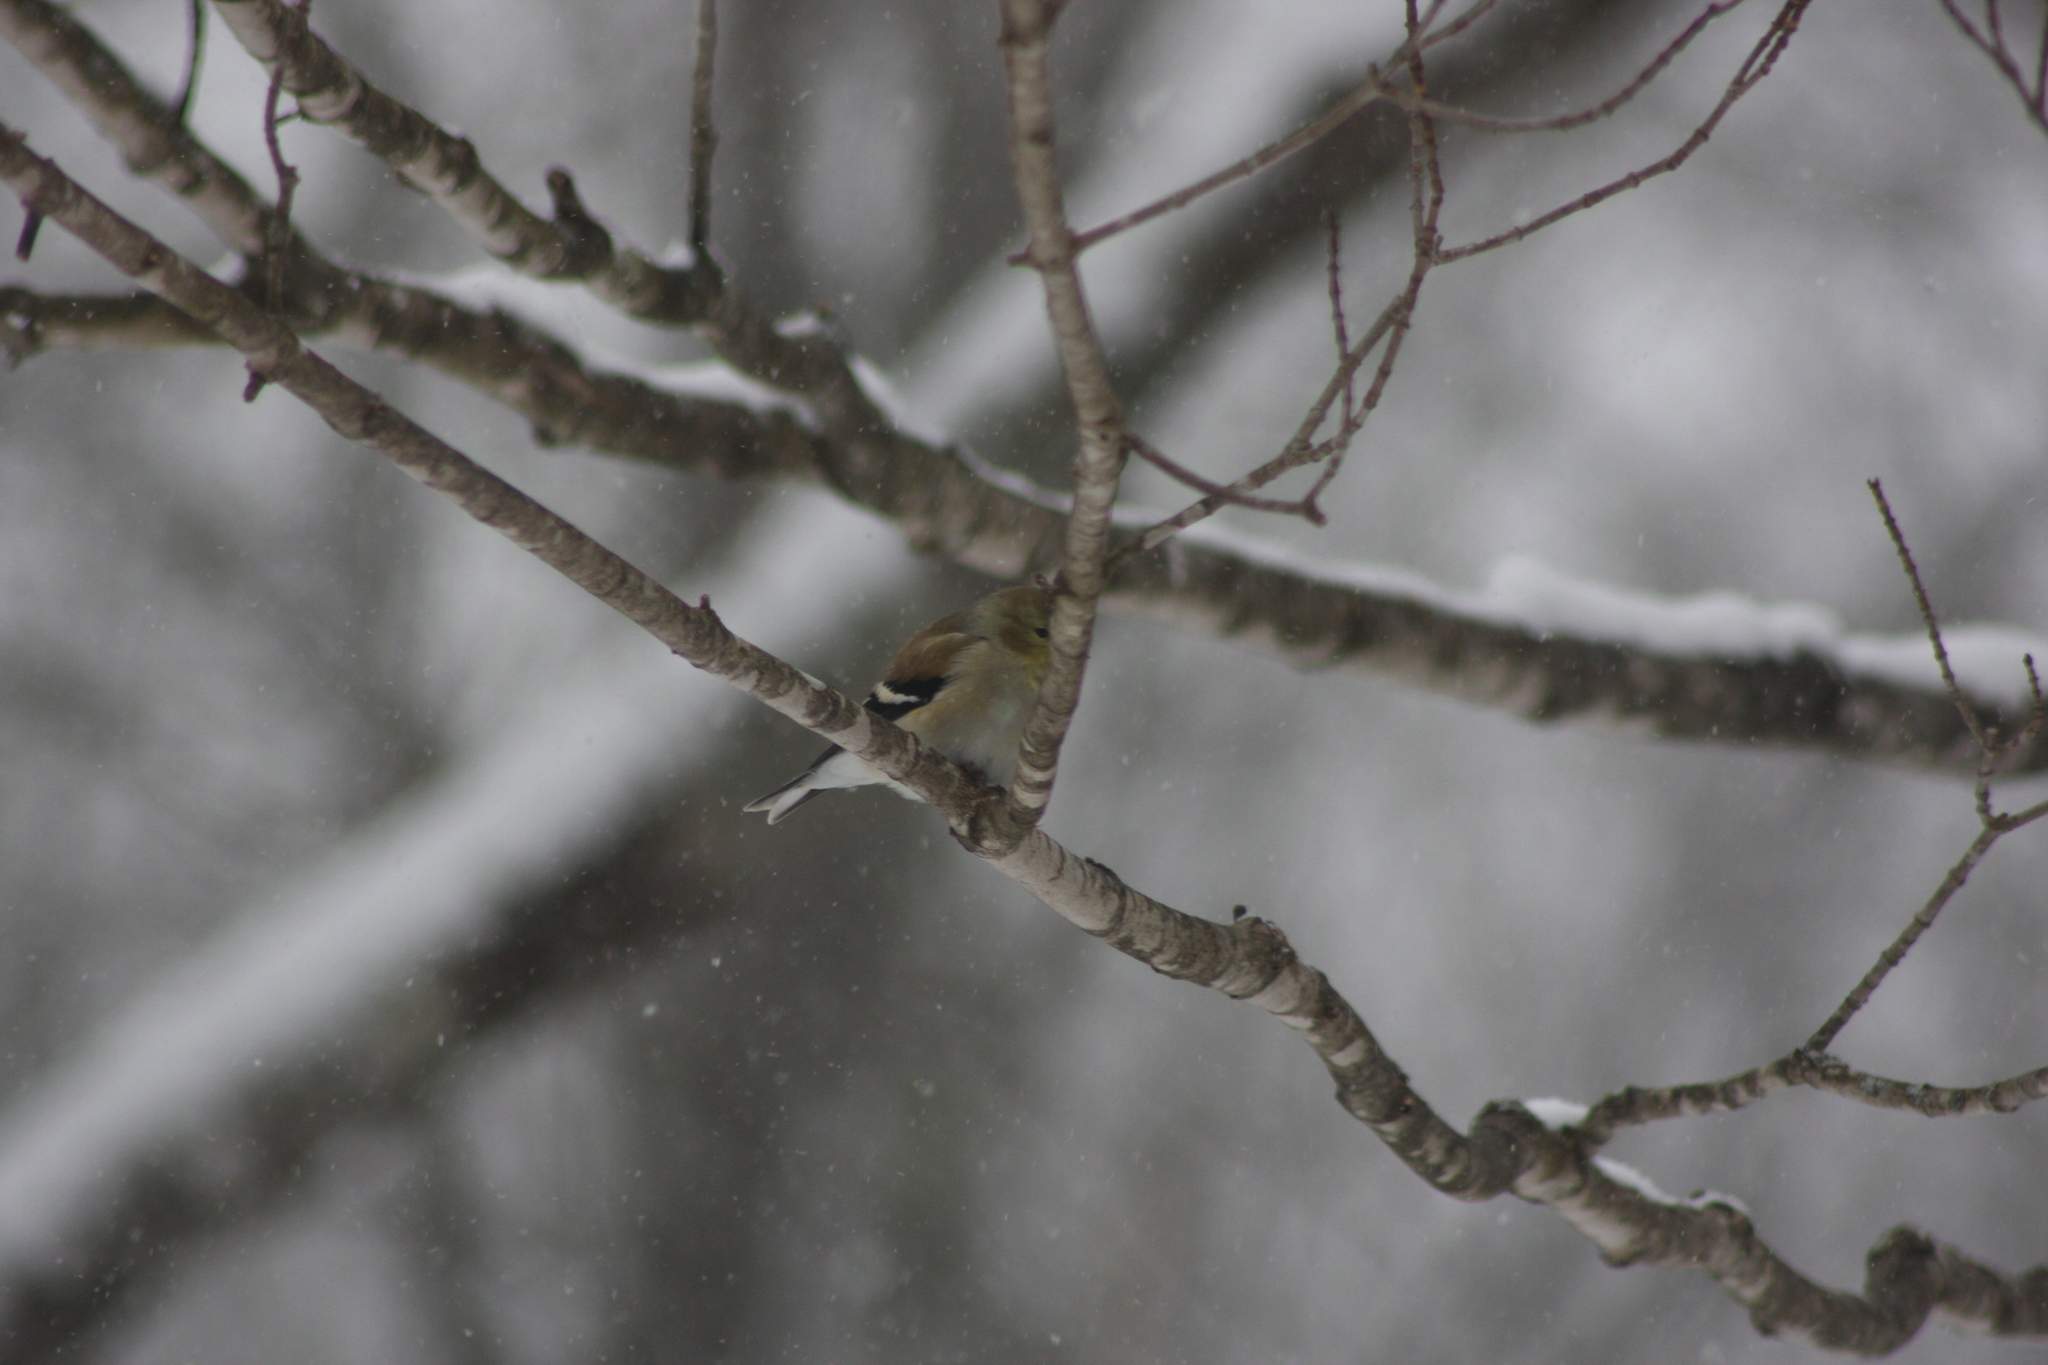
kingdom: Animalia
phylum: Chordata
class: Aves
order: Passeriformes
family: Fringillidae
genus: Spinus
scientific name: Spinus tristis
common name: American goldfinch
